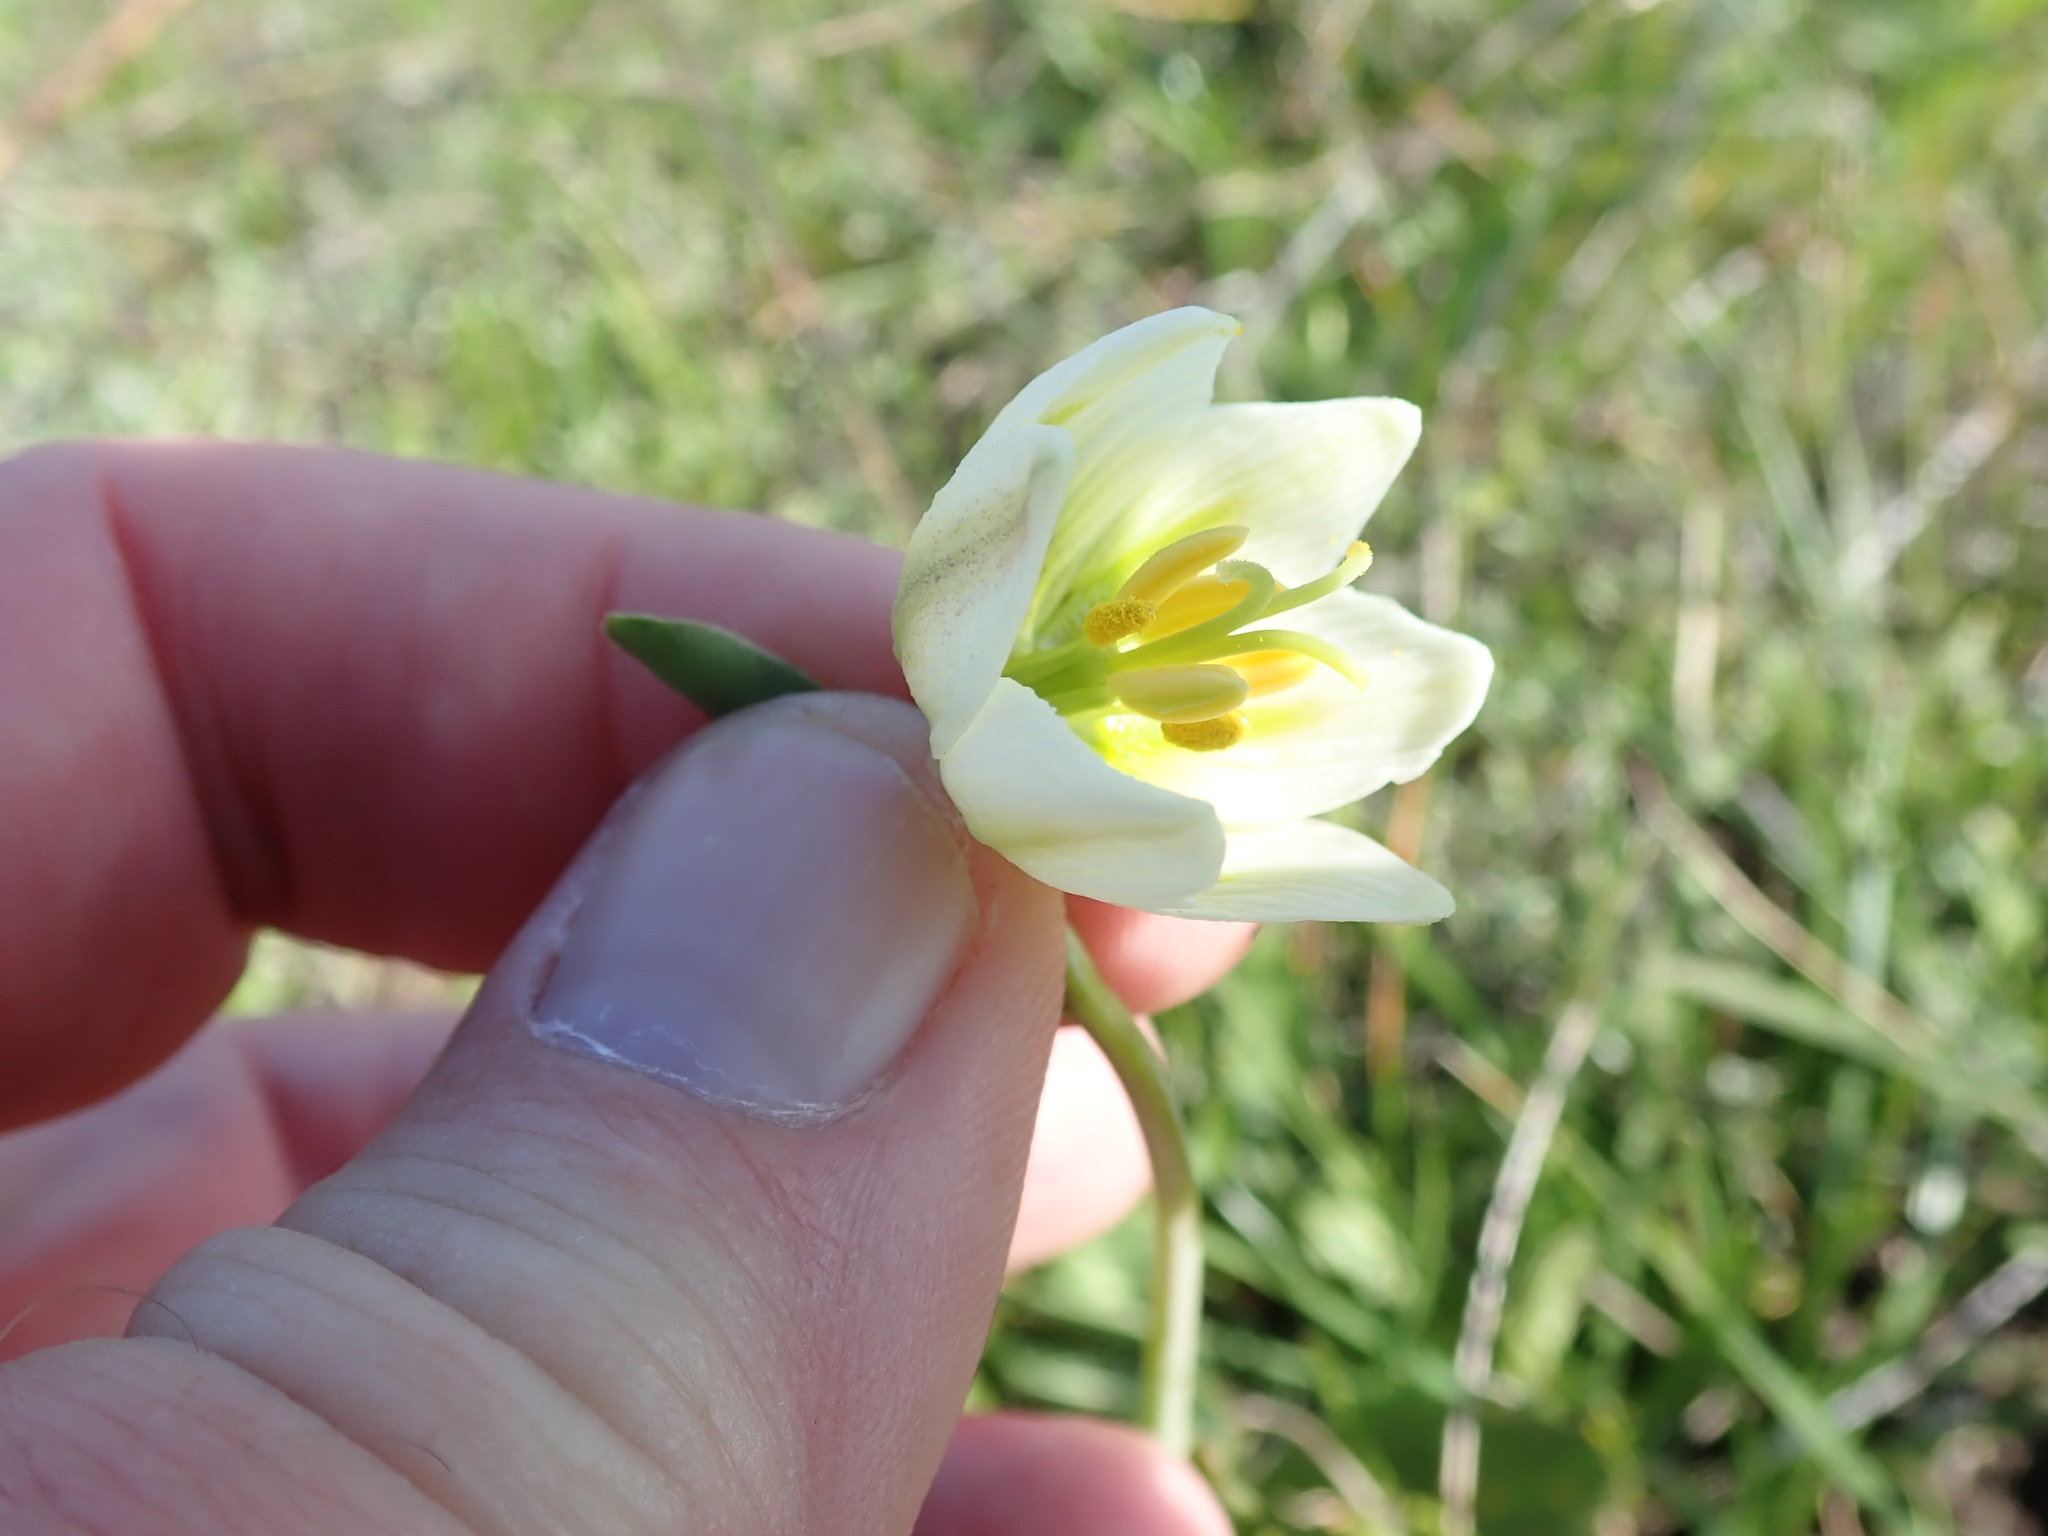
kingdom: Plantae
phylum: Tracheophyta
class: Liliopsida
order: Liliales
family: Liliaceae
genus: Fritillaria
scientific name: Fritillaria liliacea
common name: Fragrant fritillary
